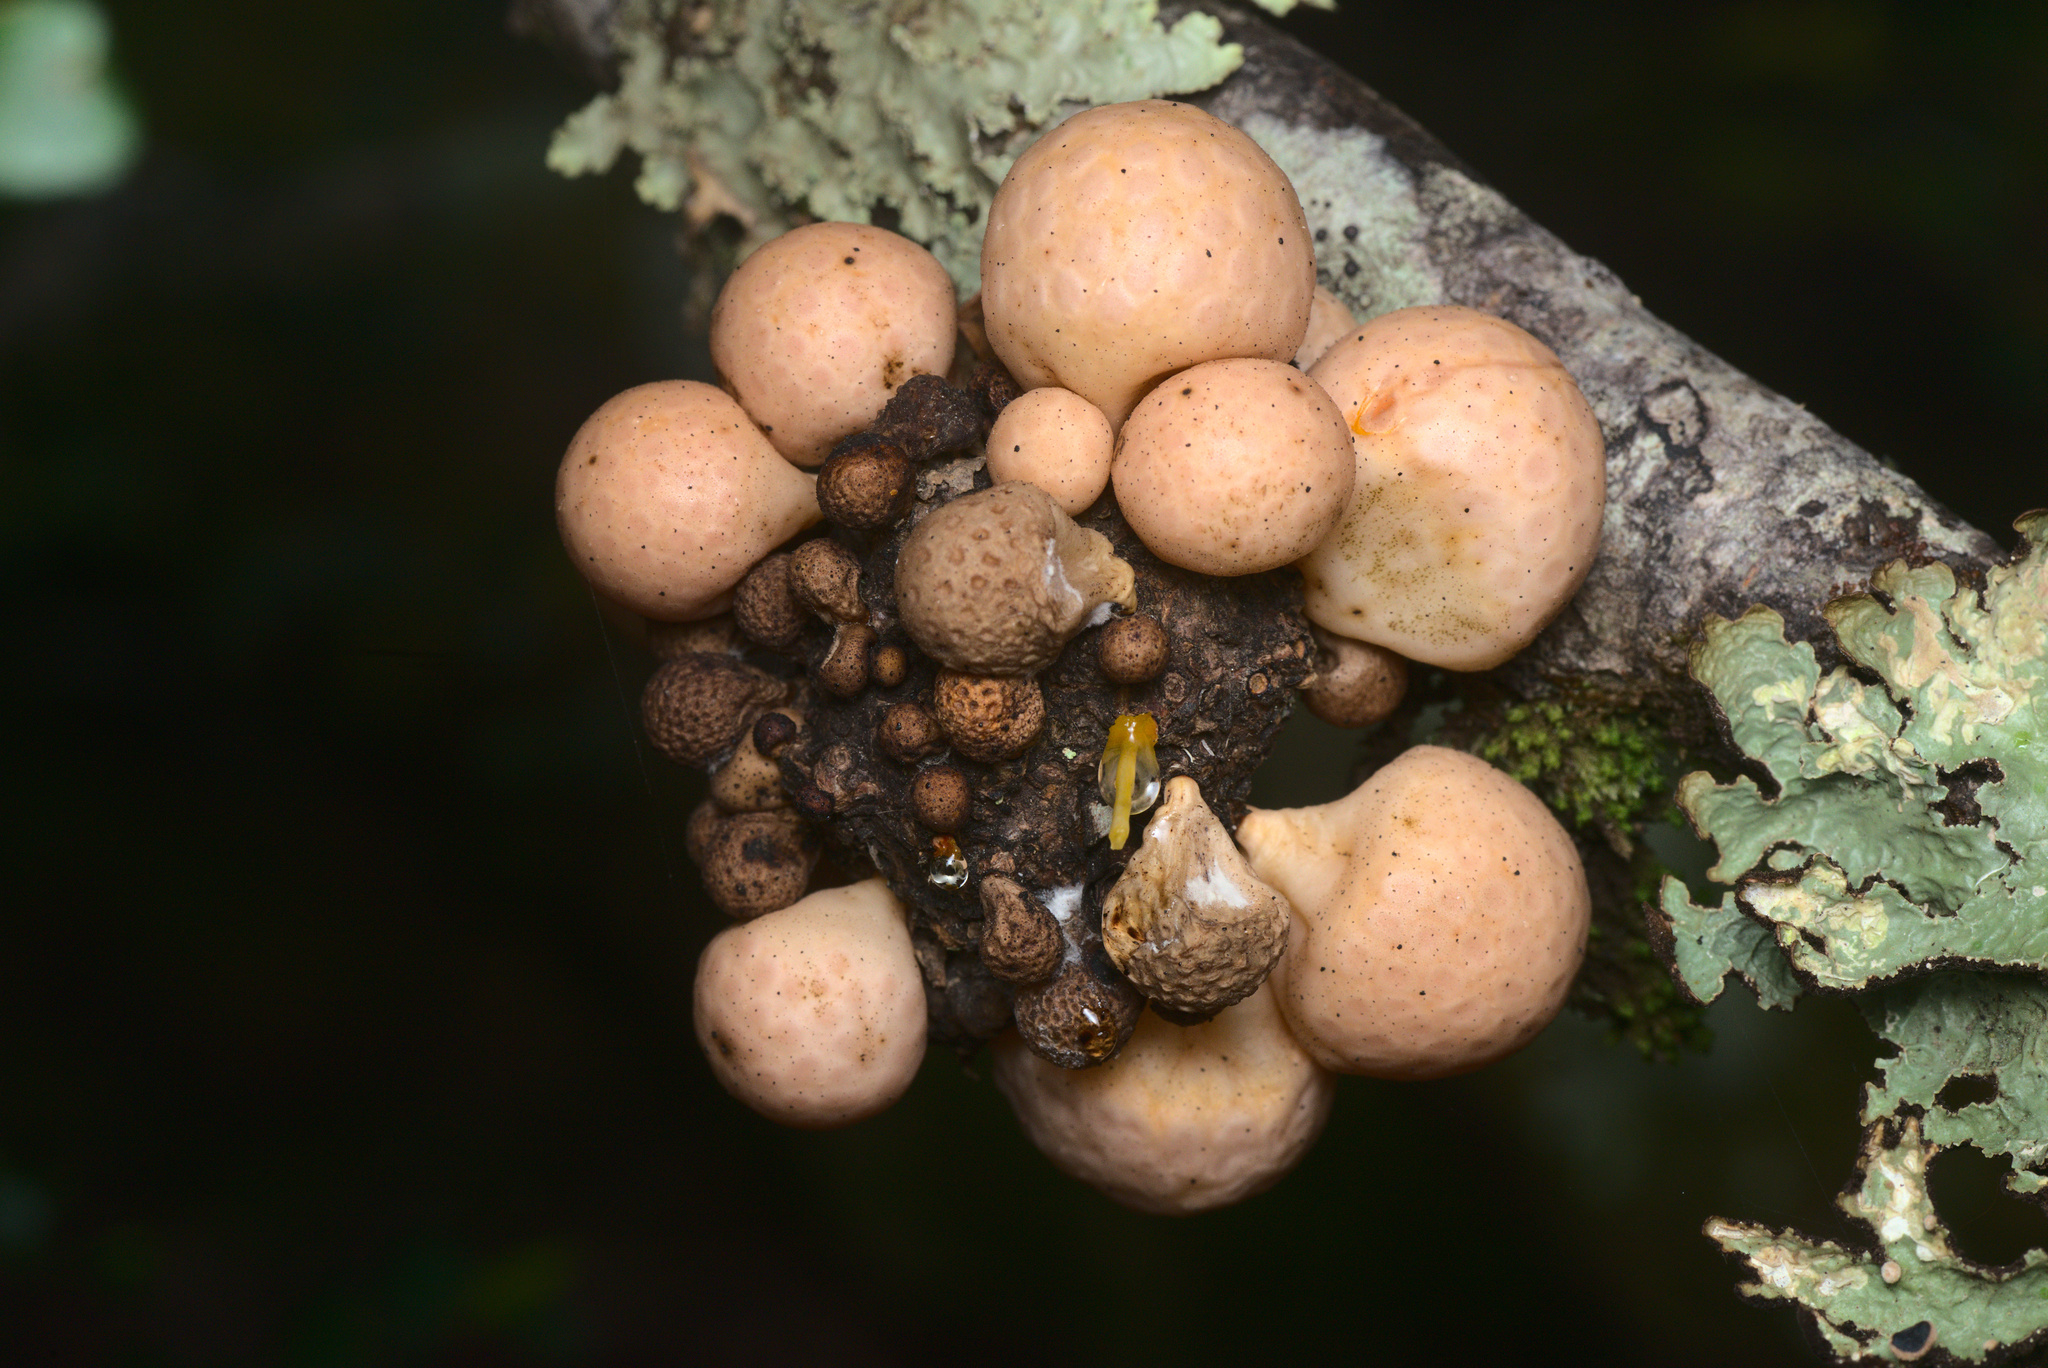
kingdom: Fungi
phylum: Ascomycota
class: Leotiomycetes
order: Cyttariales
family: Cyttariaceae
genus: Cyttaria
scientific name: Cyttaria gunnii
